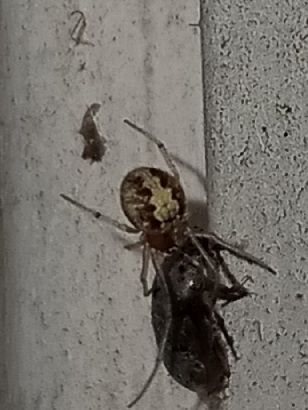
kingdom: Animalia
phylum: Arthropoda
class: Arachnida
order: Araneae
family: Theridiidae
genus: Steatoda
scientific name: Steatoda triangulosa
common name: Triangulate bud spider
